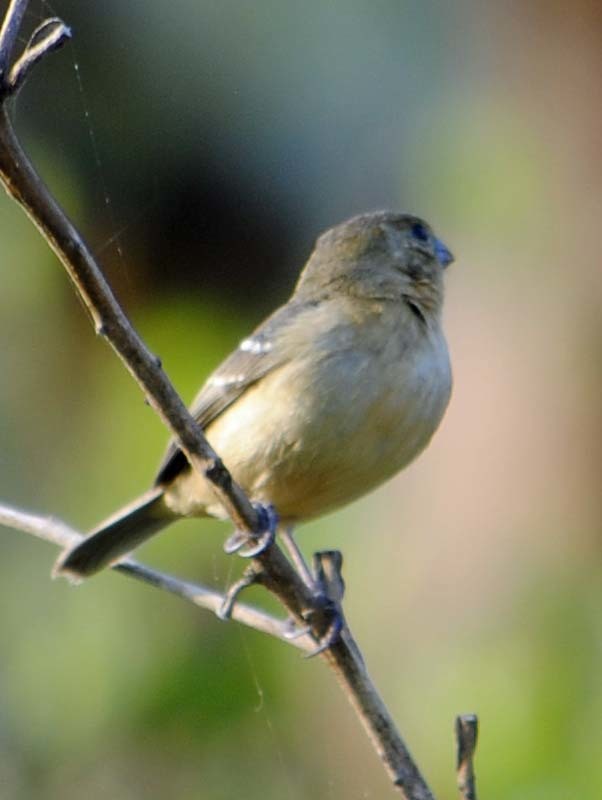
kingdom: Animalia
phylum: Chordata
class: Aves
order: Passeriformes
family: Thraupidae
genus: Sporophila
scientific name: Sporophila morelleti
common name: Morelet's seedeater
